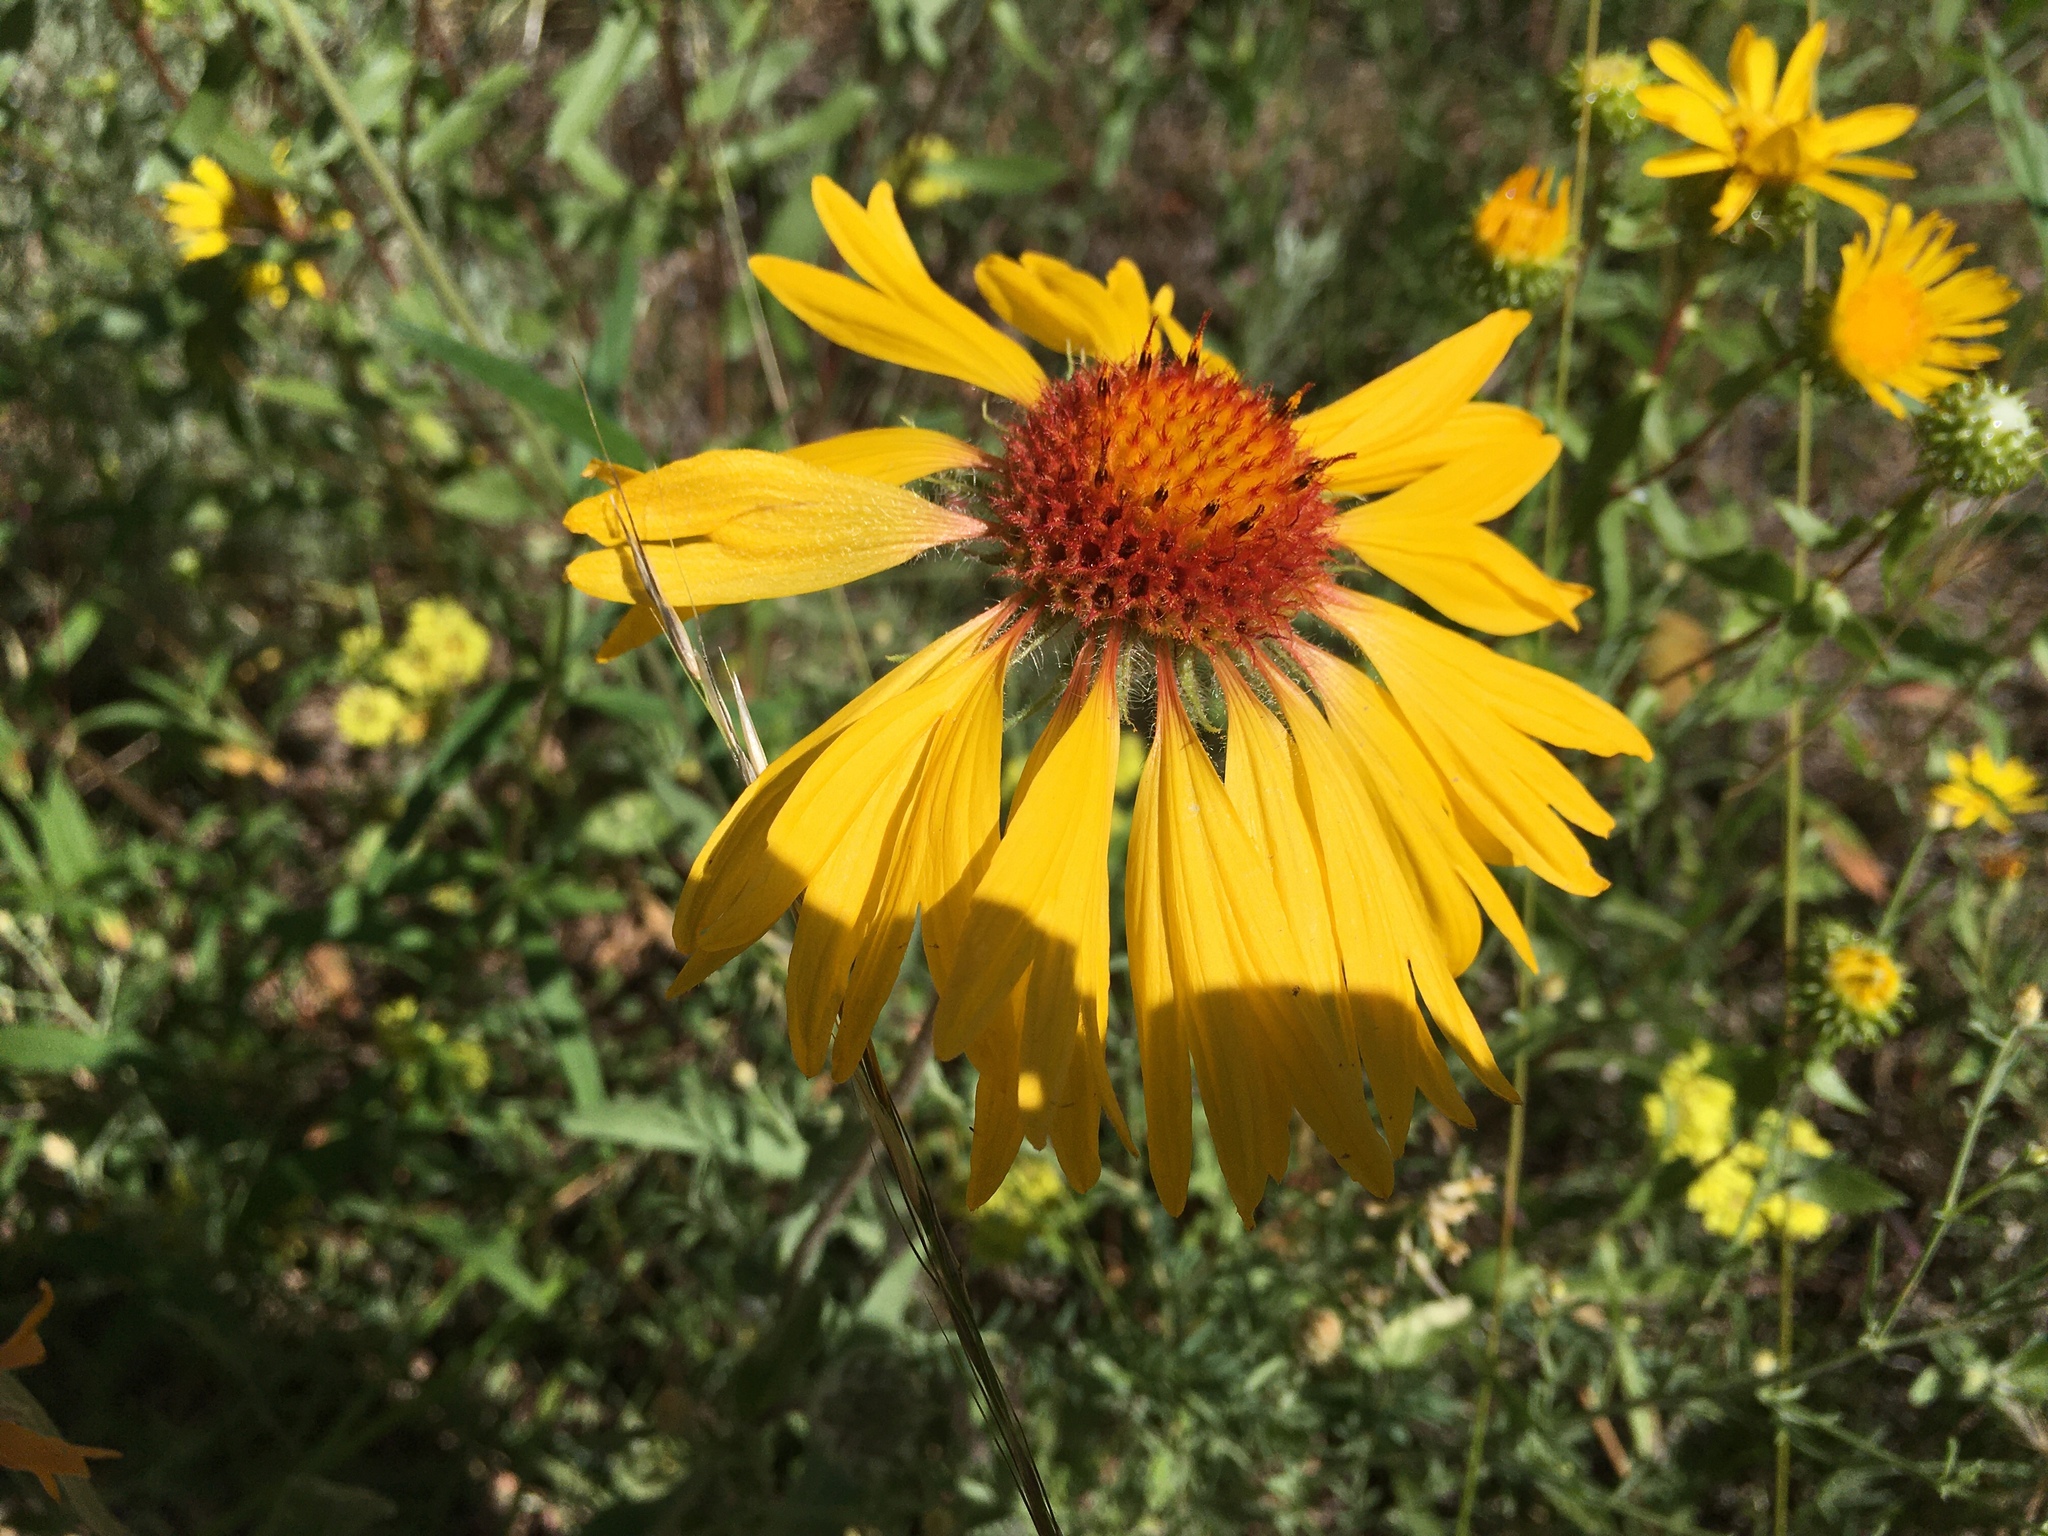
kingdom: Plantae
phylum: Tracheophyta
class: Magnoliopsida
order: Asterales
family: Asteraceae
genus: Gaillardia
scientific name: Gaillardia aristata
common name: Blanket-flower
